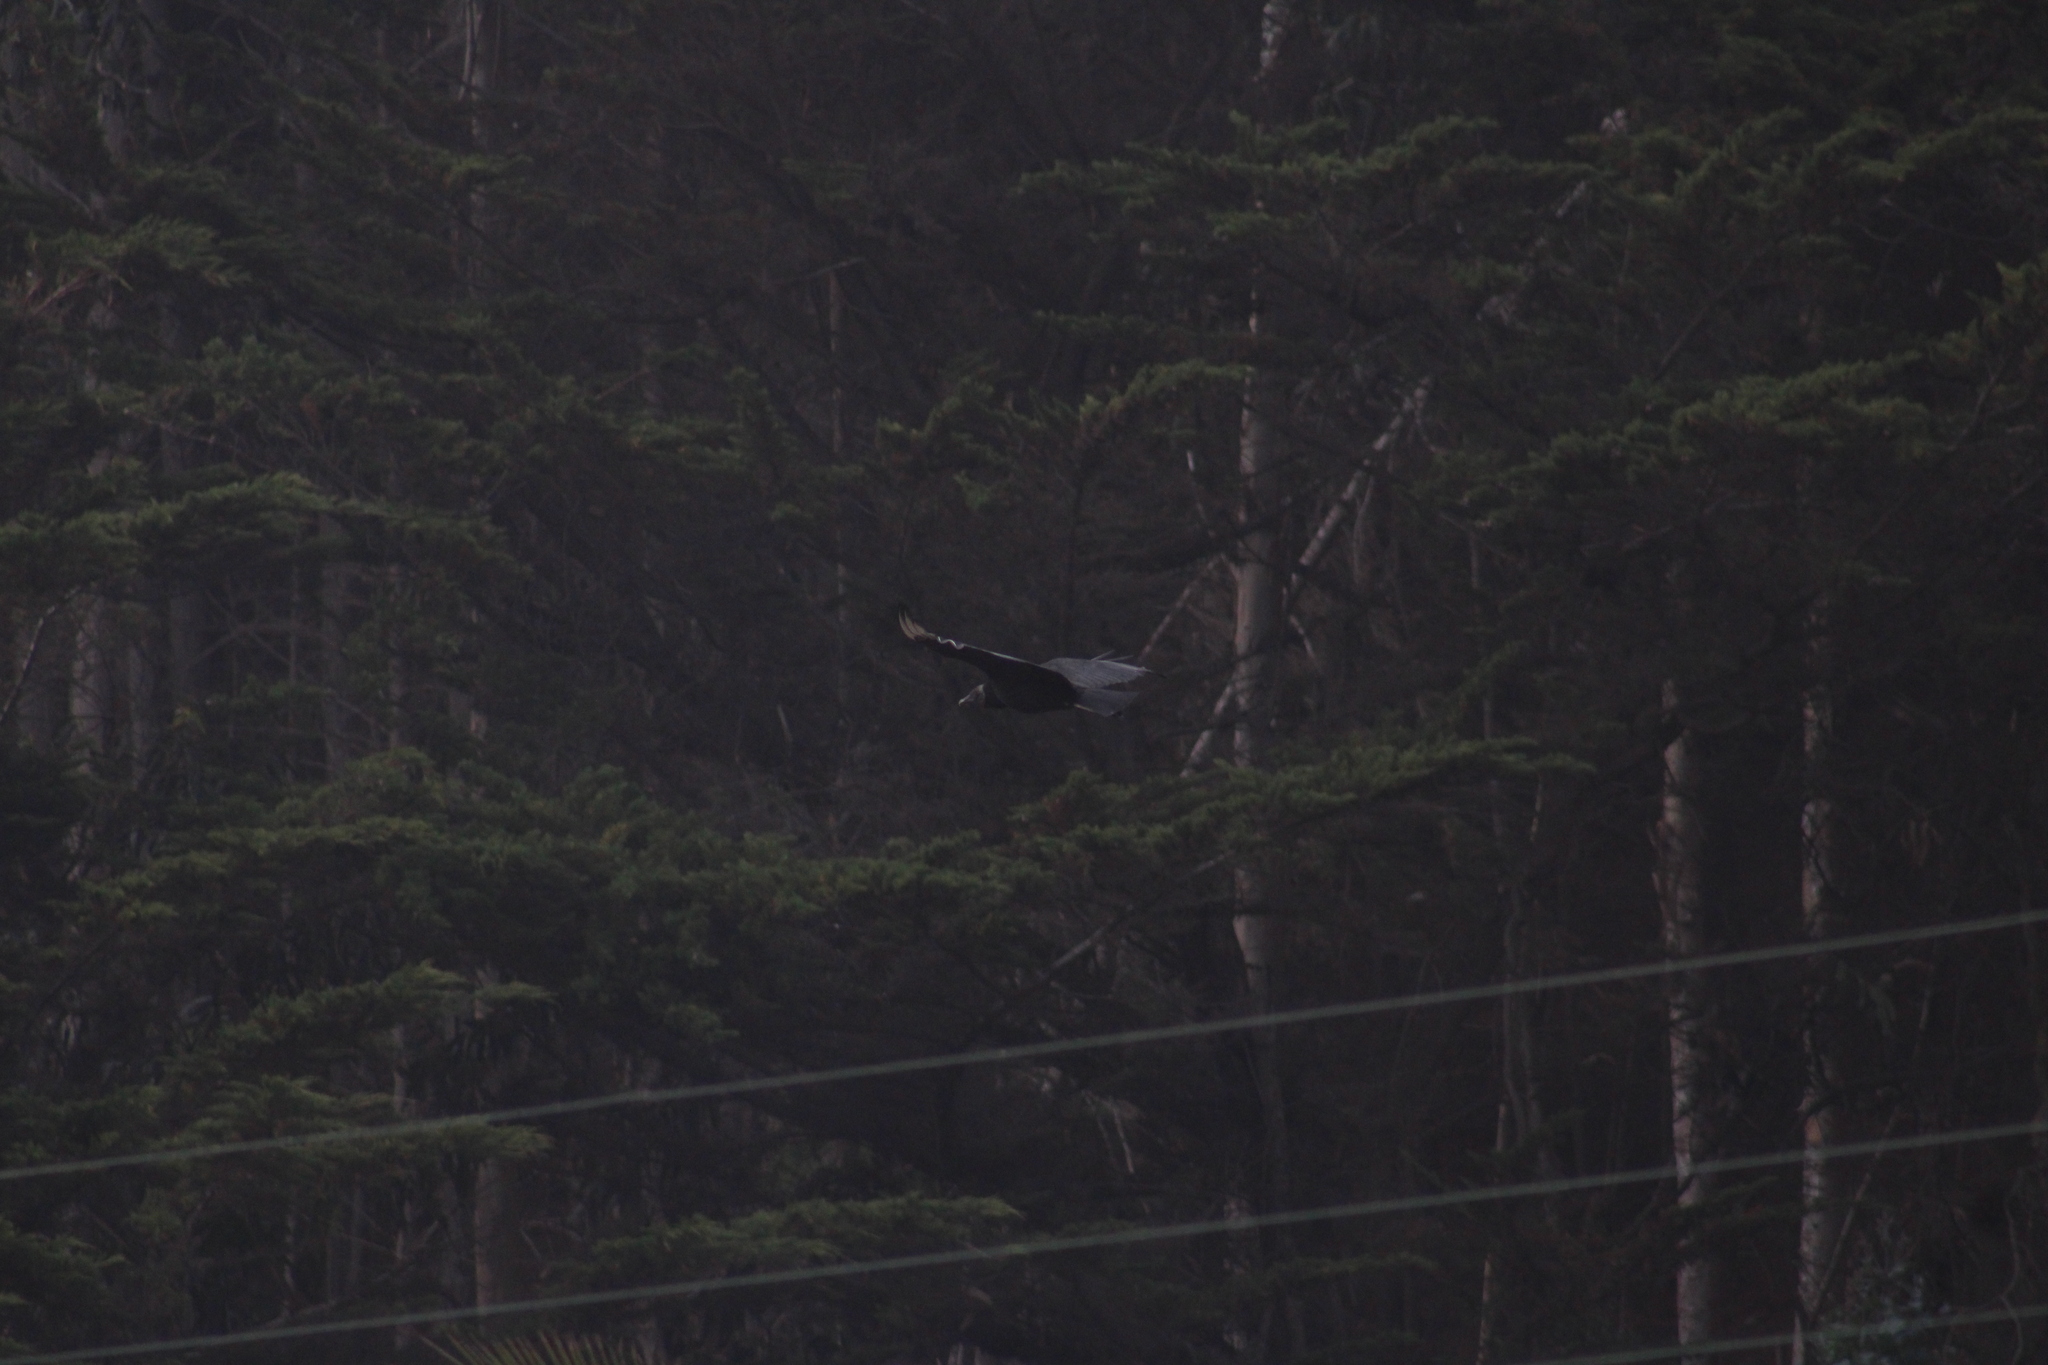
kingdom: Animalia
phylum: Chordata
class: Aves
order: Accipitriformes
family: Cathartidae
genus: Coragyps
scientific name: Coragyps atratus
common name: Black vulture
